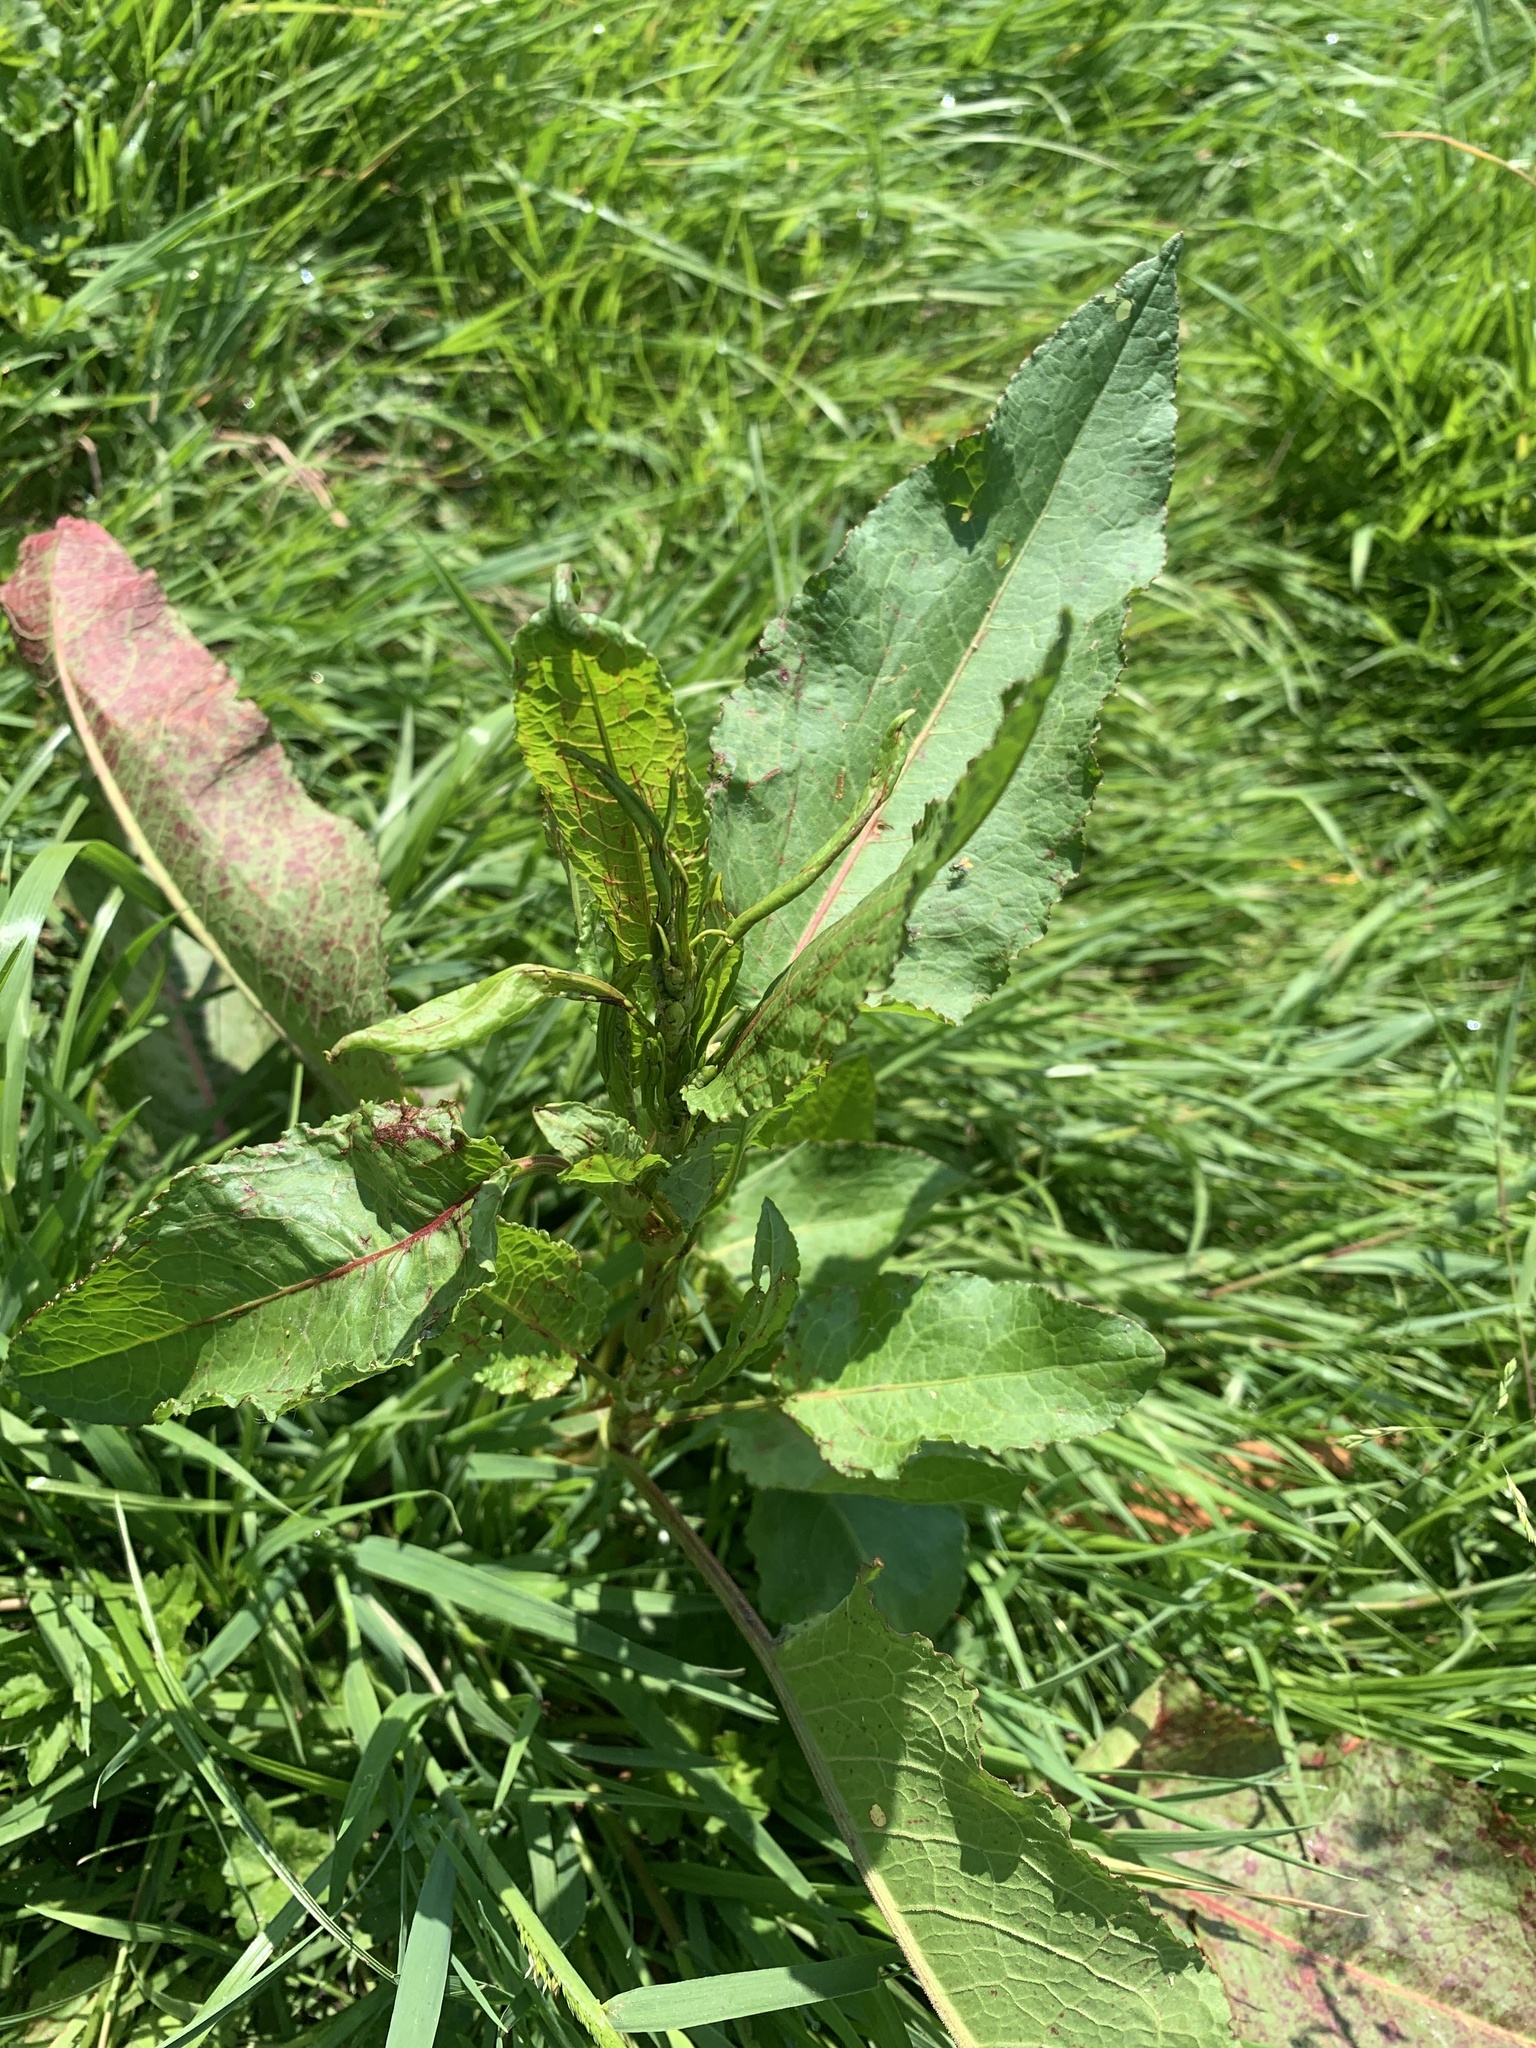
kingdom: Plantae
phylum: Tracheophyta
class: Magnoliopsida
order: Caryophyllales
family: Polygonaceae
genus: Rumex
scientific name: Rumex obtusifolius
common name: Bitter dock
